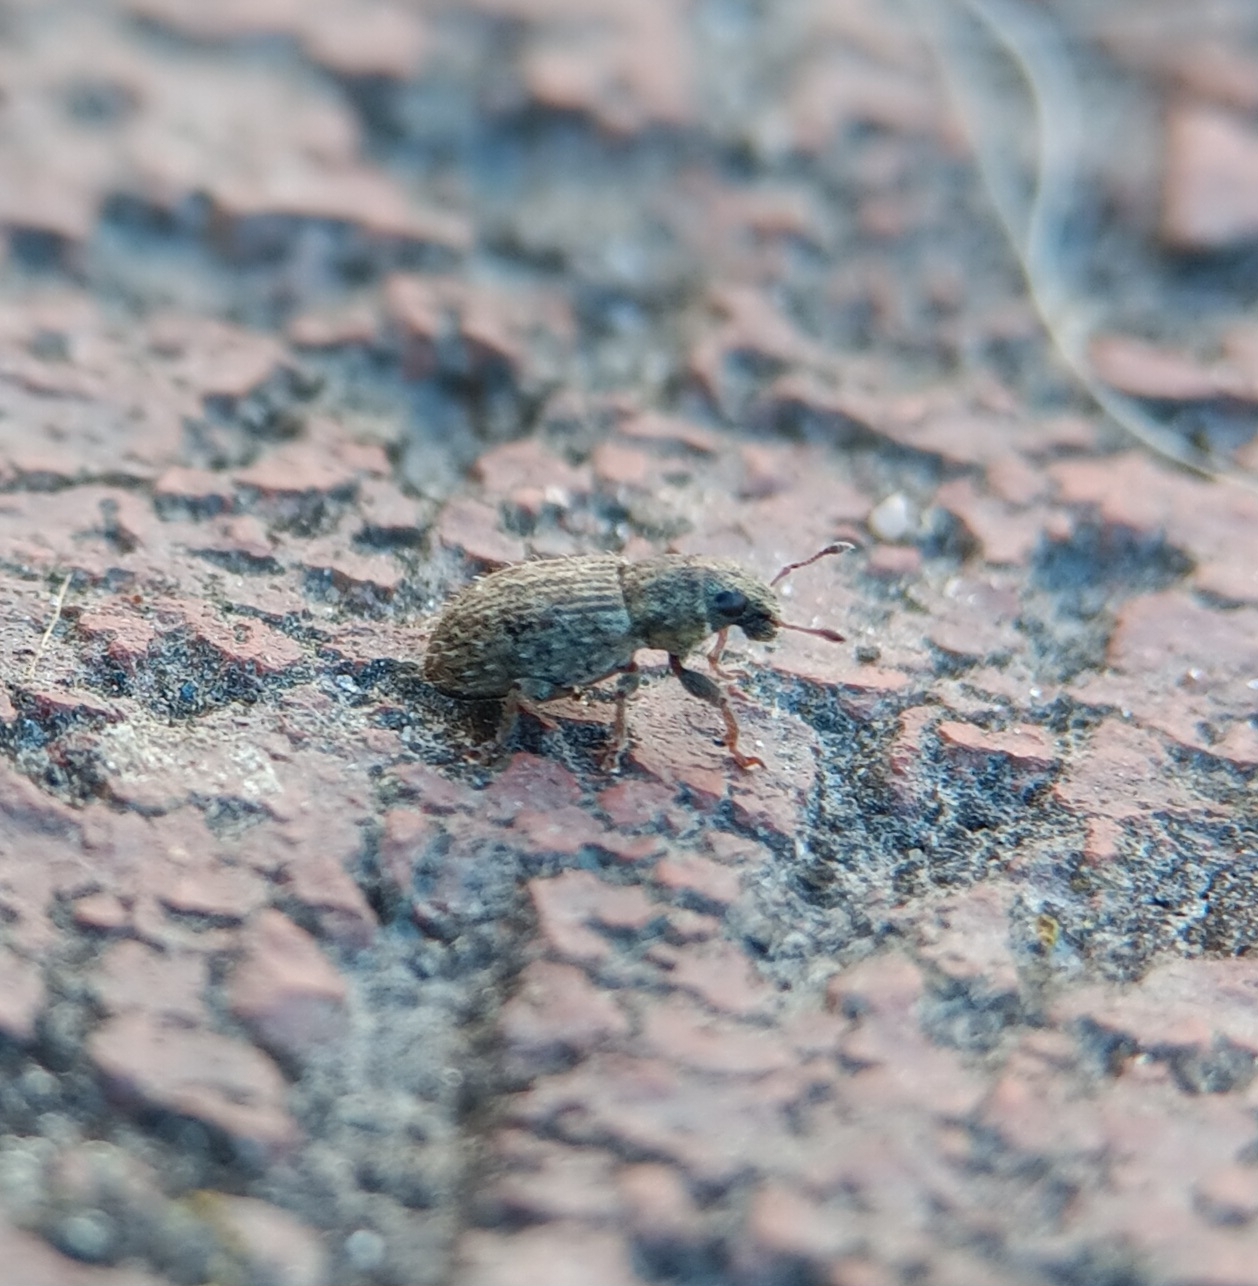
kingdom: Animalia
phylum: Arthropoda
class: Insecta
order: Coleoptera
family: Curculionidae
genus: Sitona
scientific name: Sitona hispidulus
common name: Clover weevil
